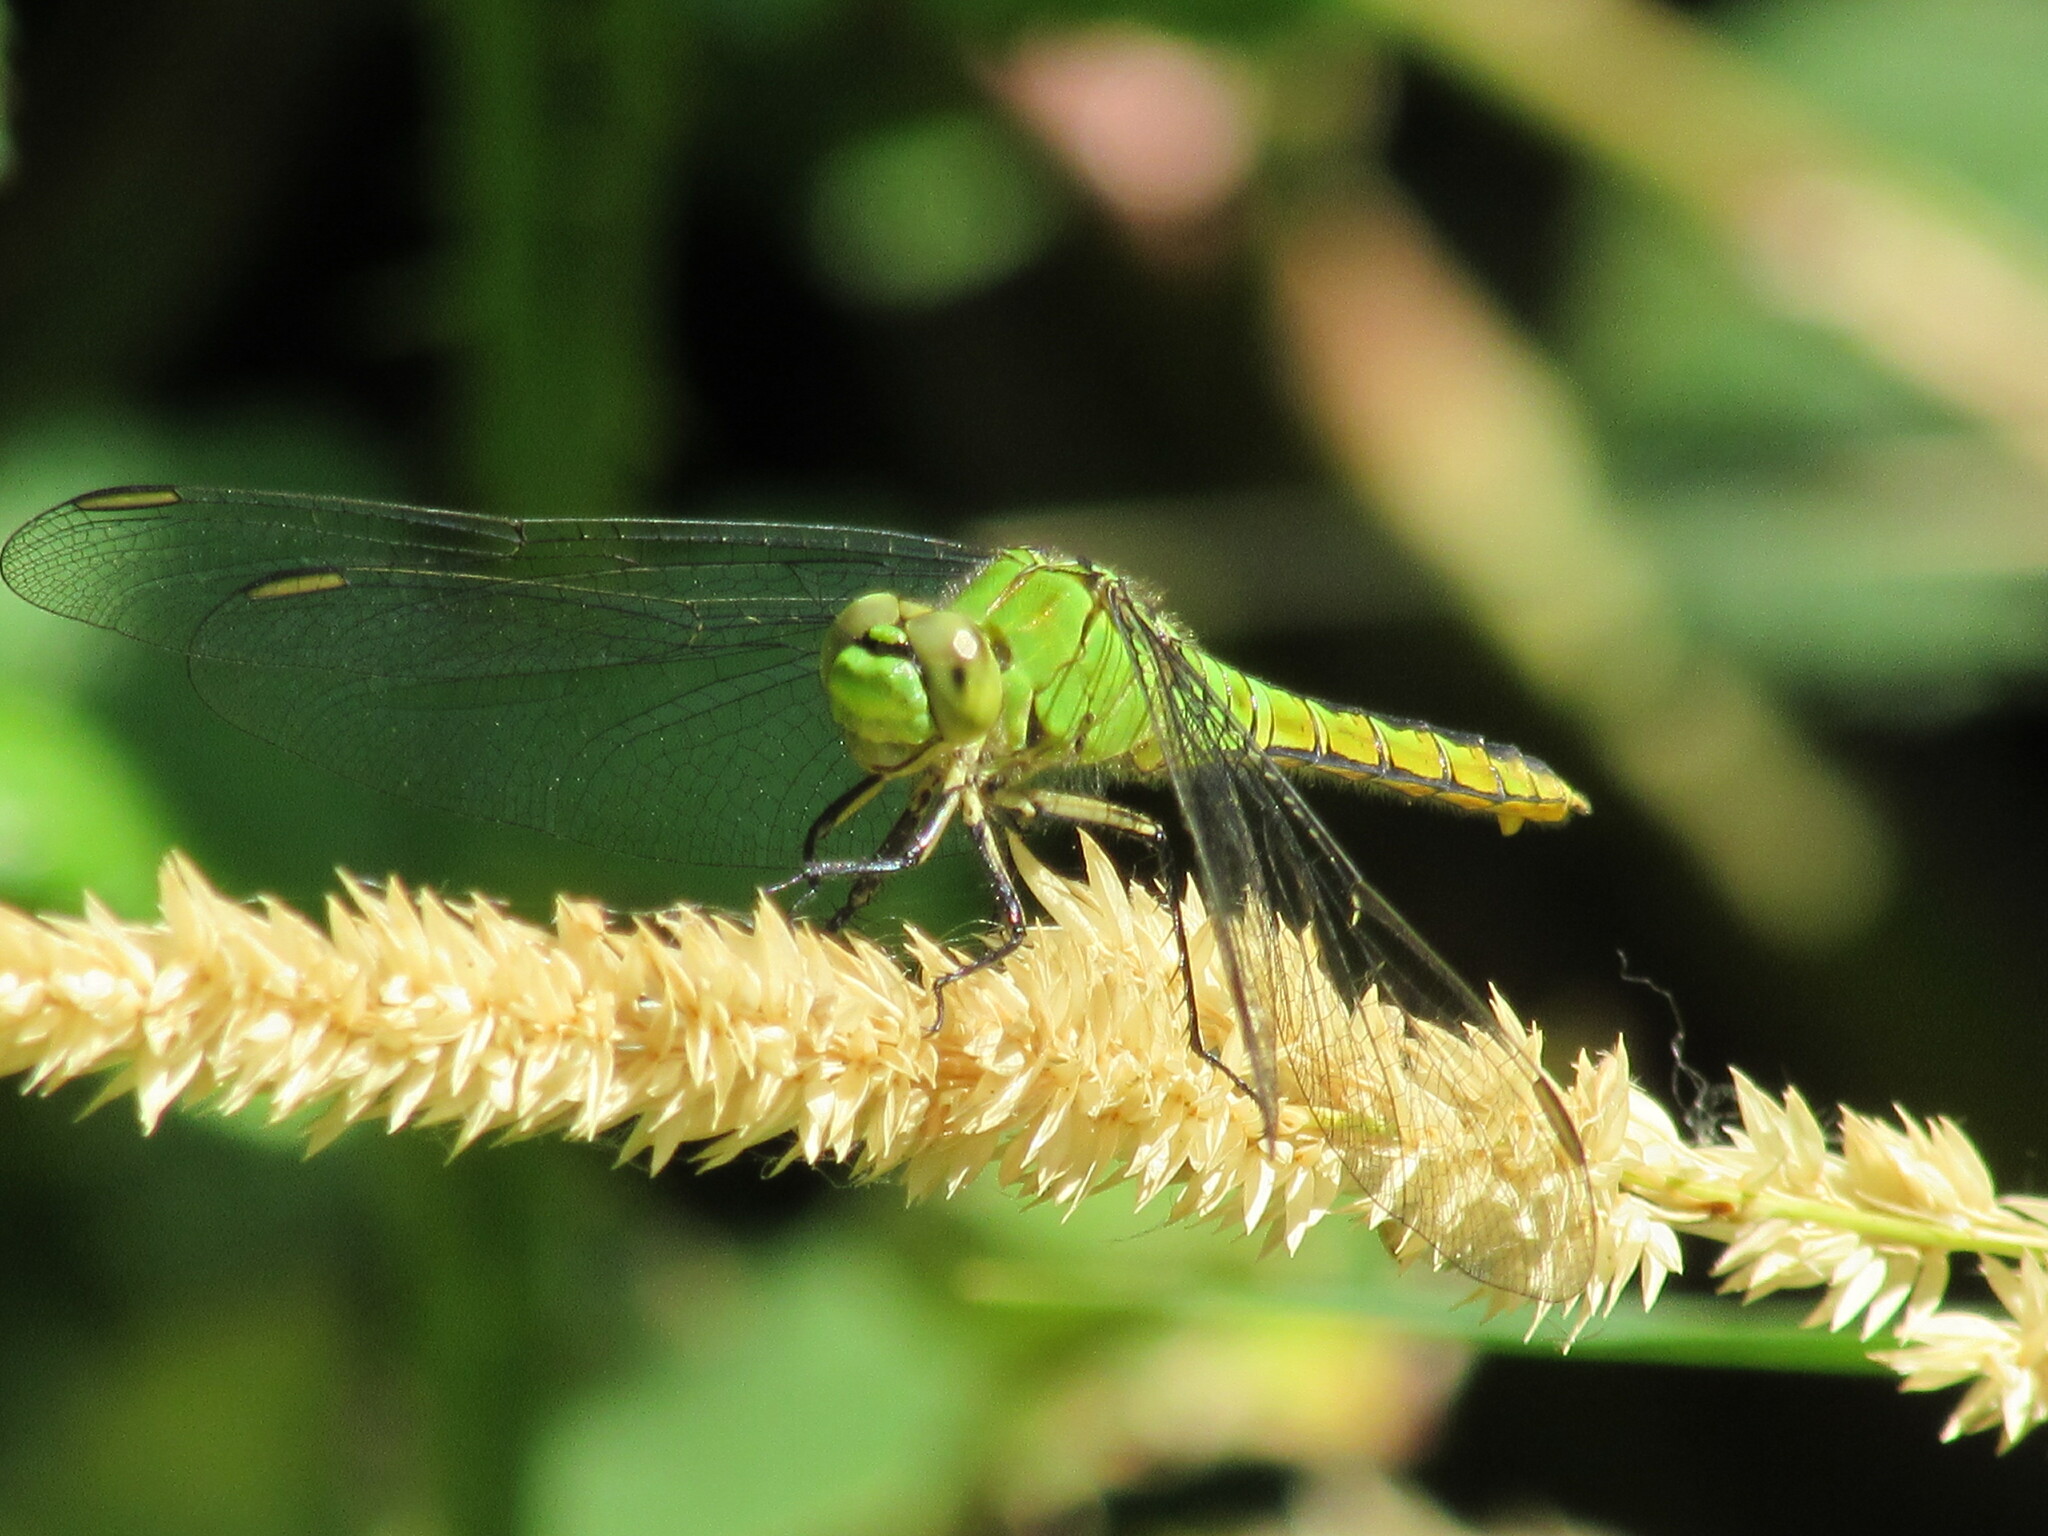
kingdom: Animalia
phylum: Arthropoda
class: Insecta
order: Odonata
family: Libellulidae
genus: Erythemis
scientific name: Erythemis collocata
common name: Western pondhawk
